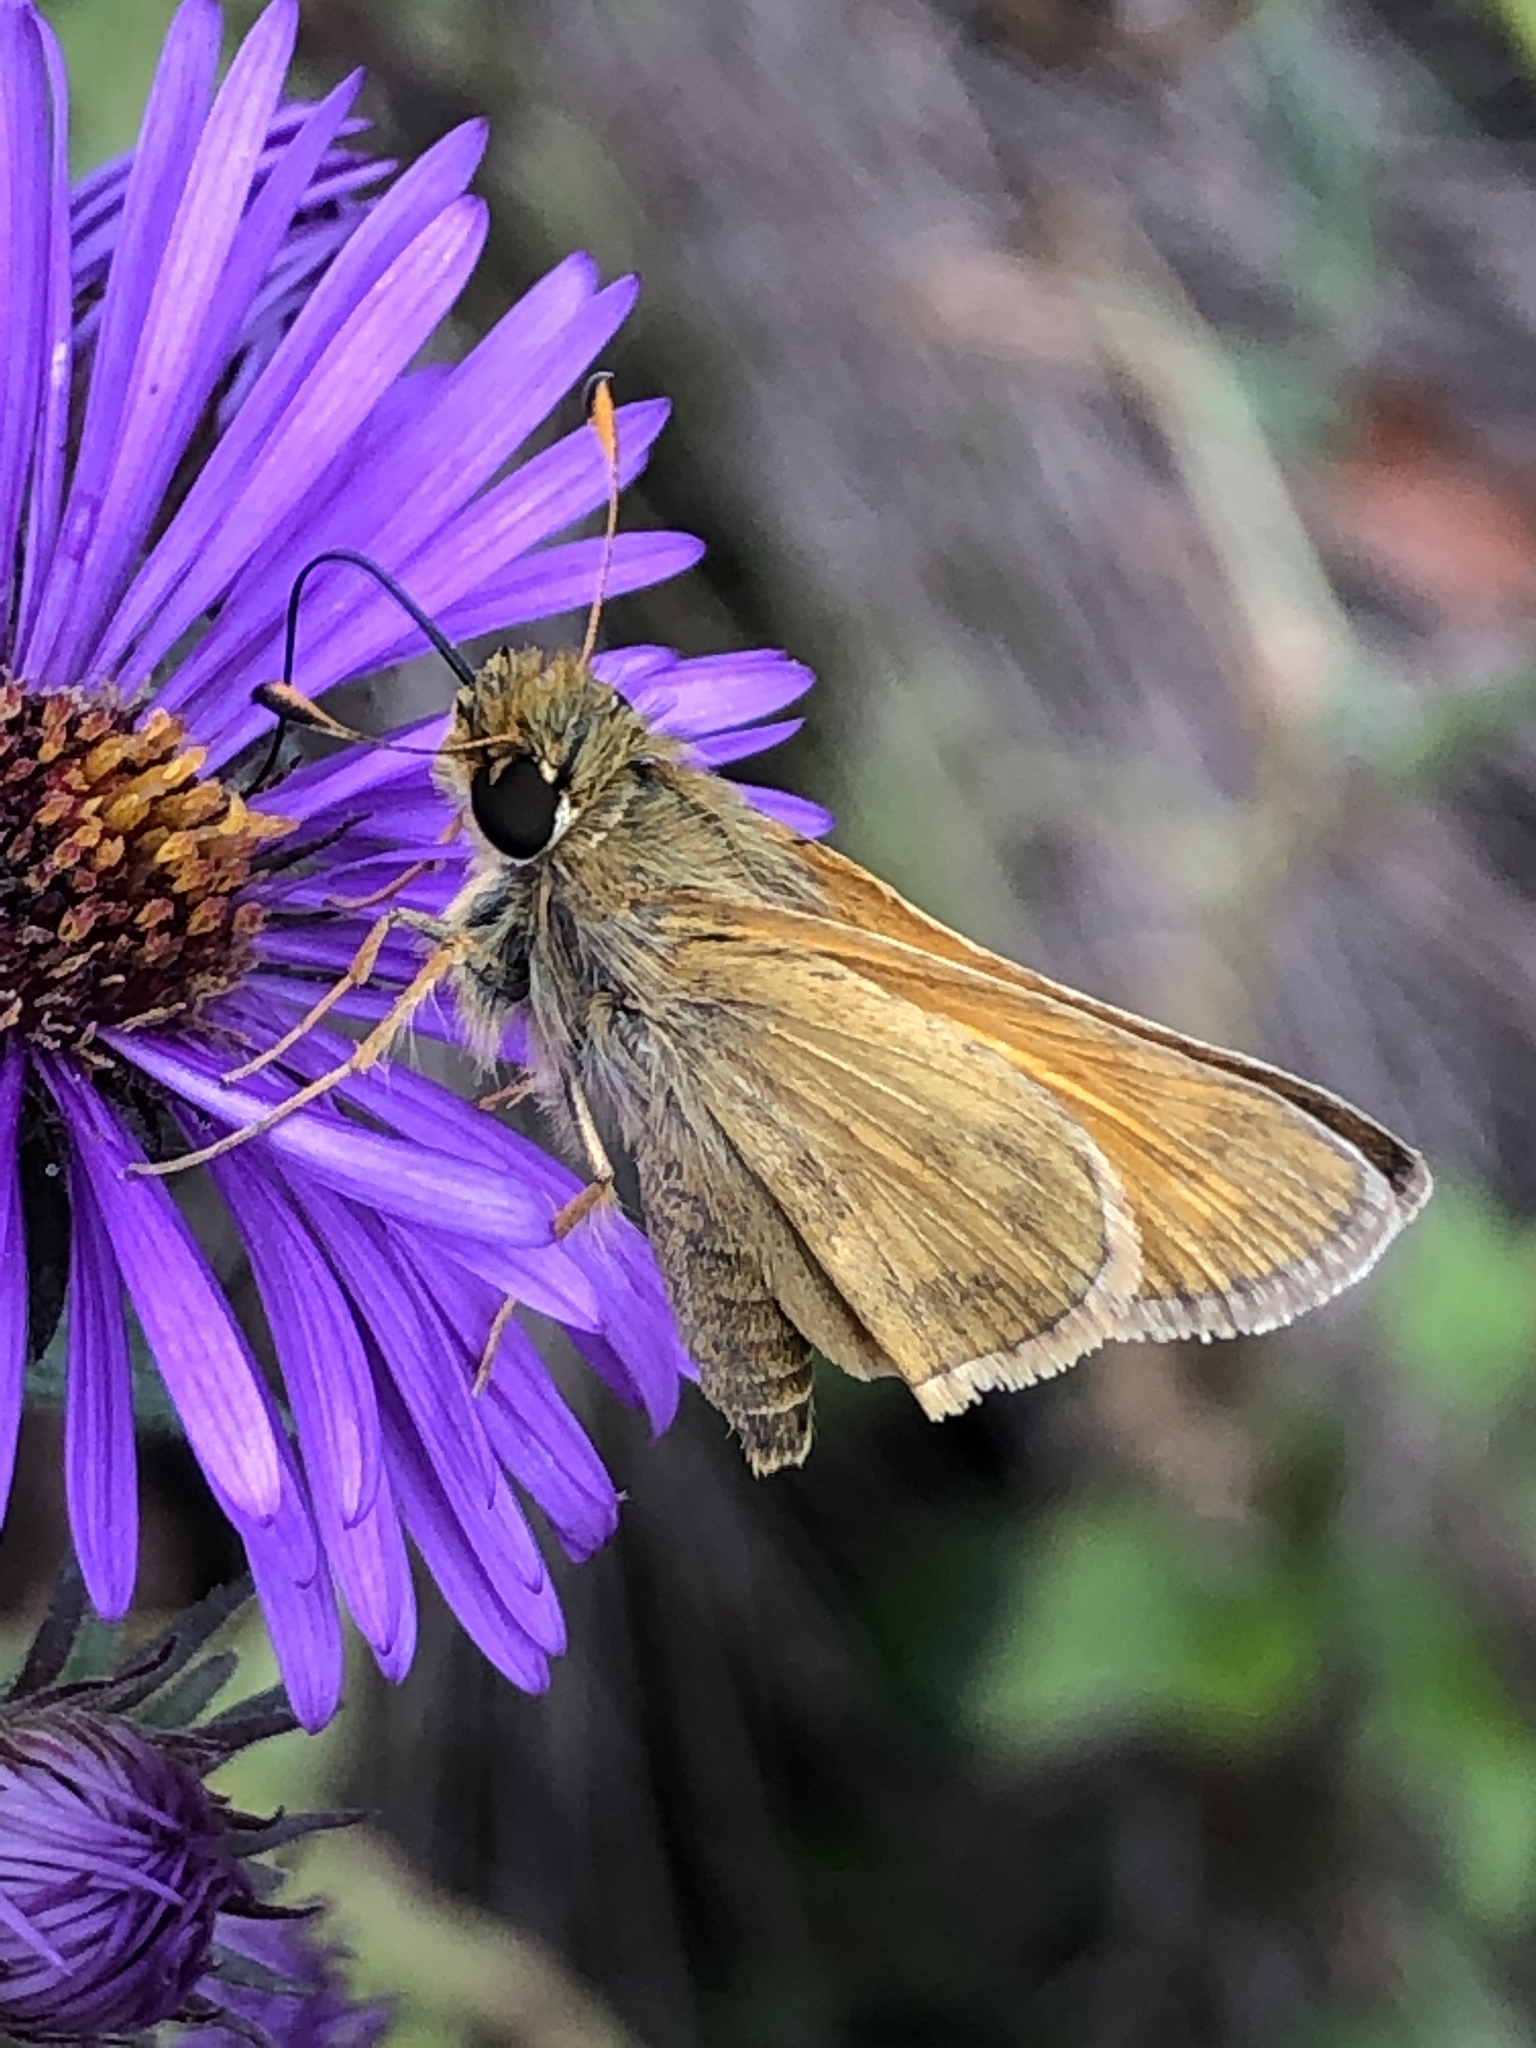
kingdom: Animalia
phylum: Arthropoda
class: Insecta
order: Lepidoptera
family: Hesperiidae
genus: Atalopedes
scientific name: Atalopedes
